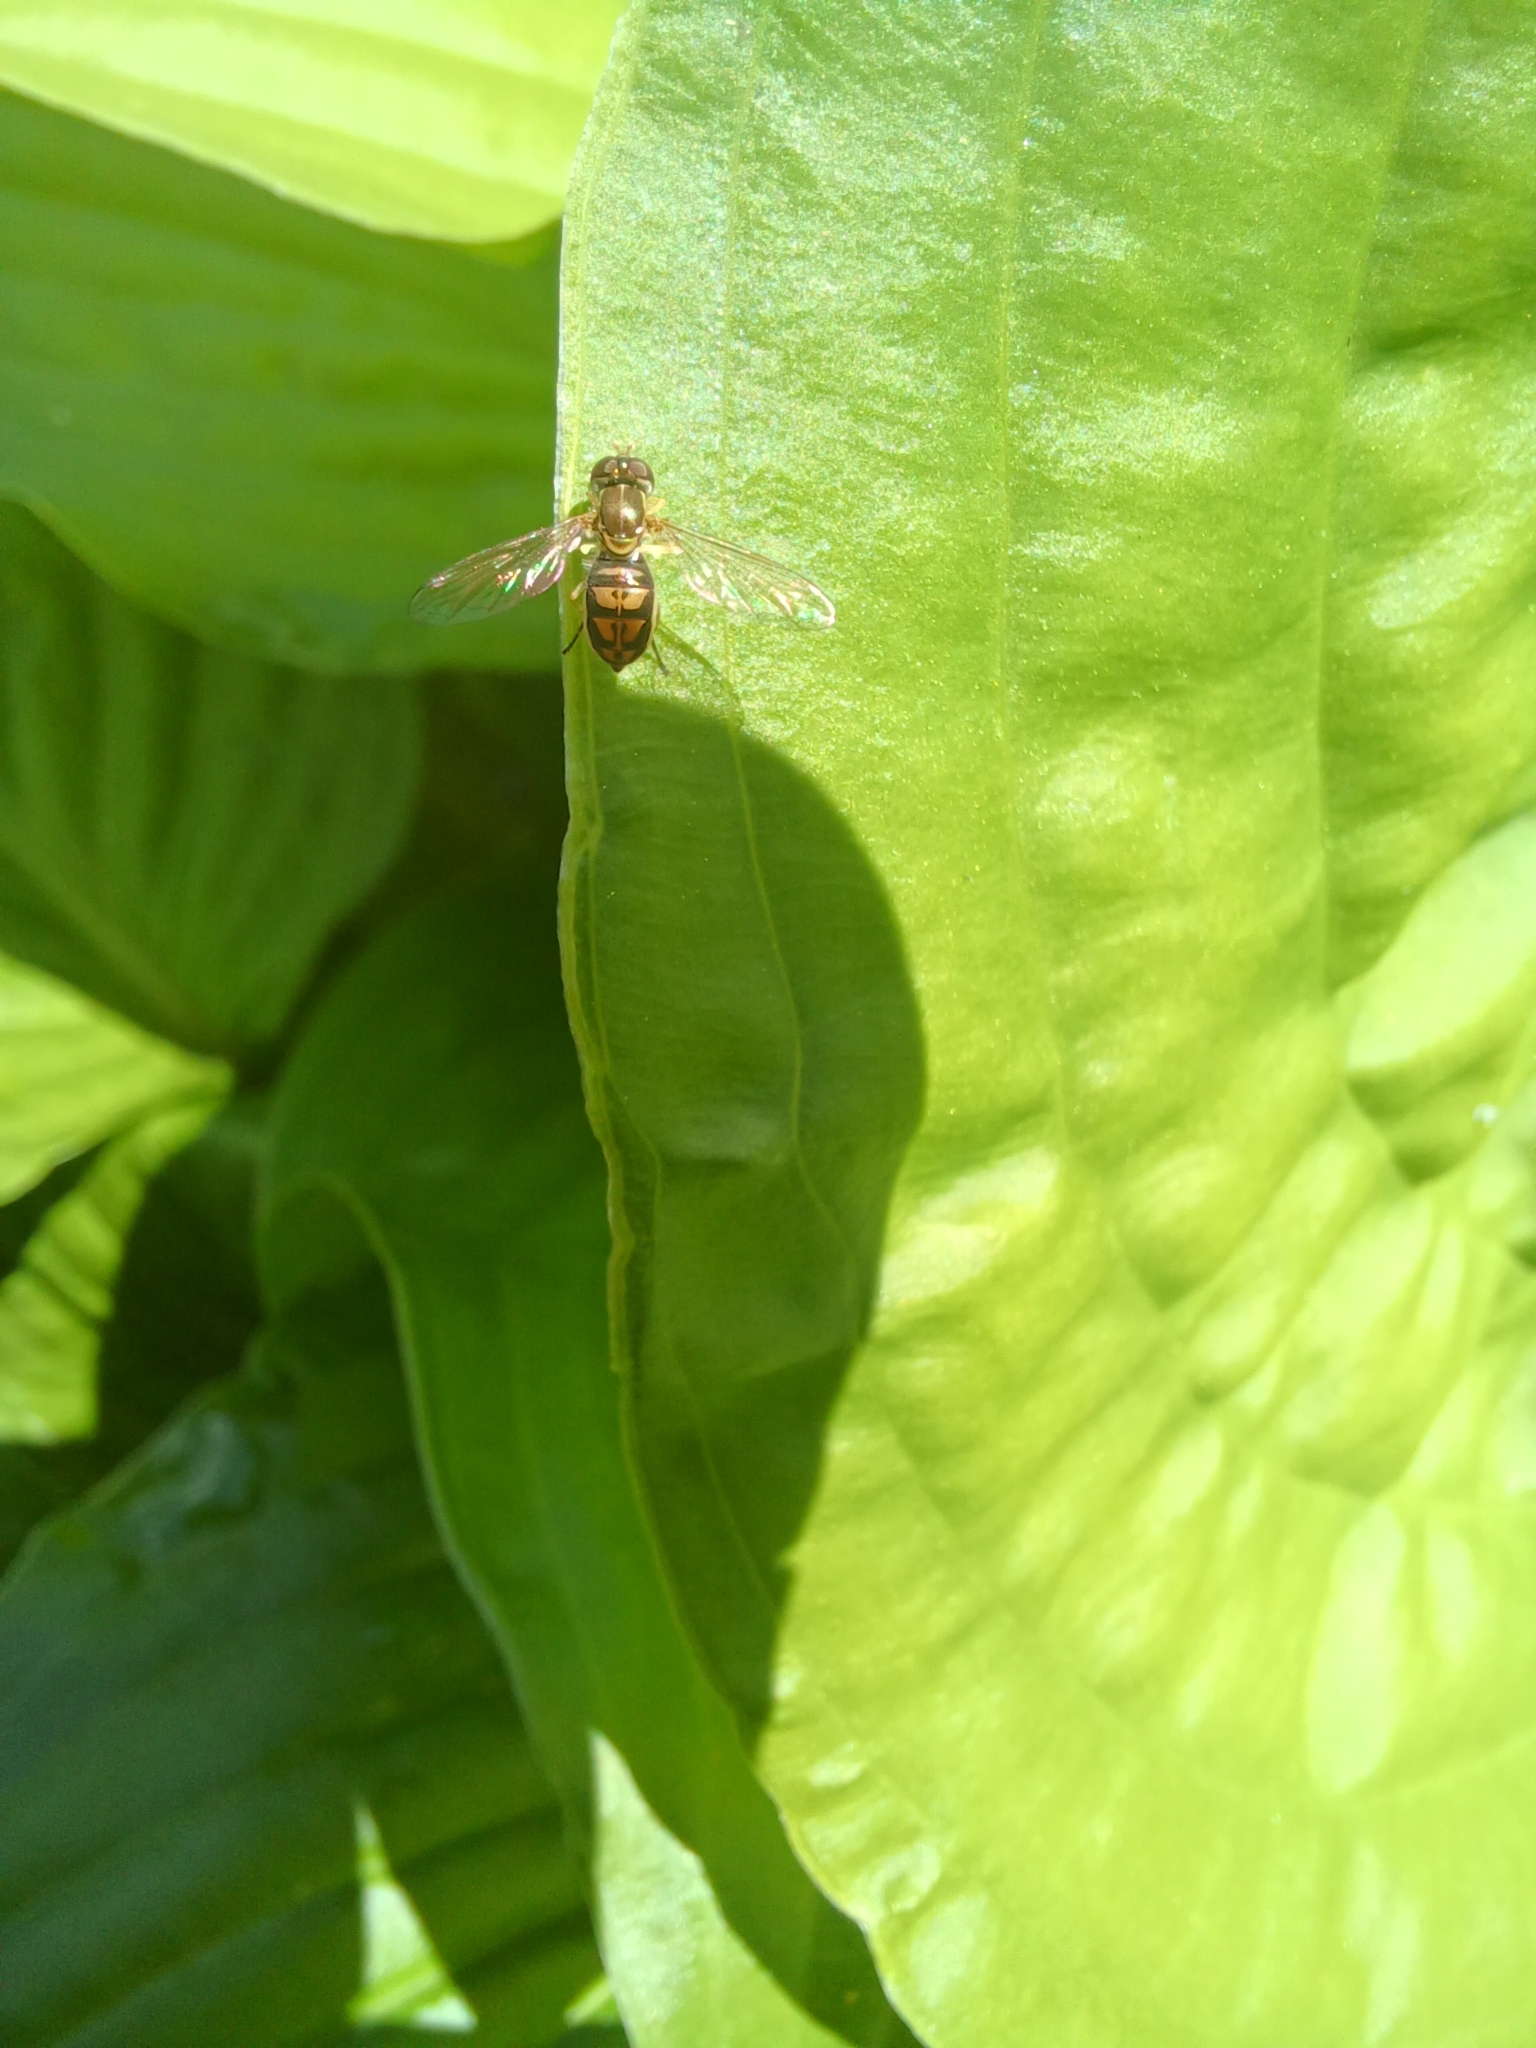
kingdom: Animalia
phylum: Arthropoda
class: Insecta
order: Diptera
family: Syrphidae
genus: Toxomerus
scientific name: Toxomerus marginatus
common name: Syrphid fly
